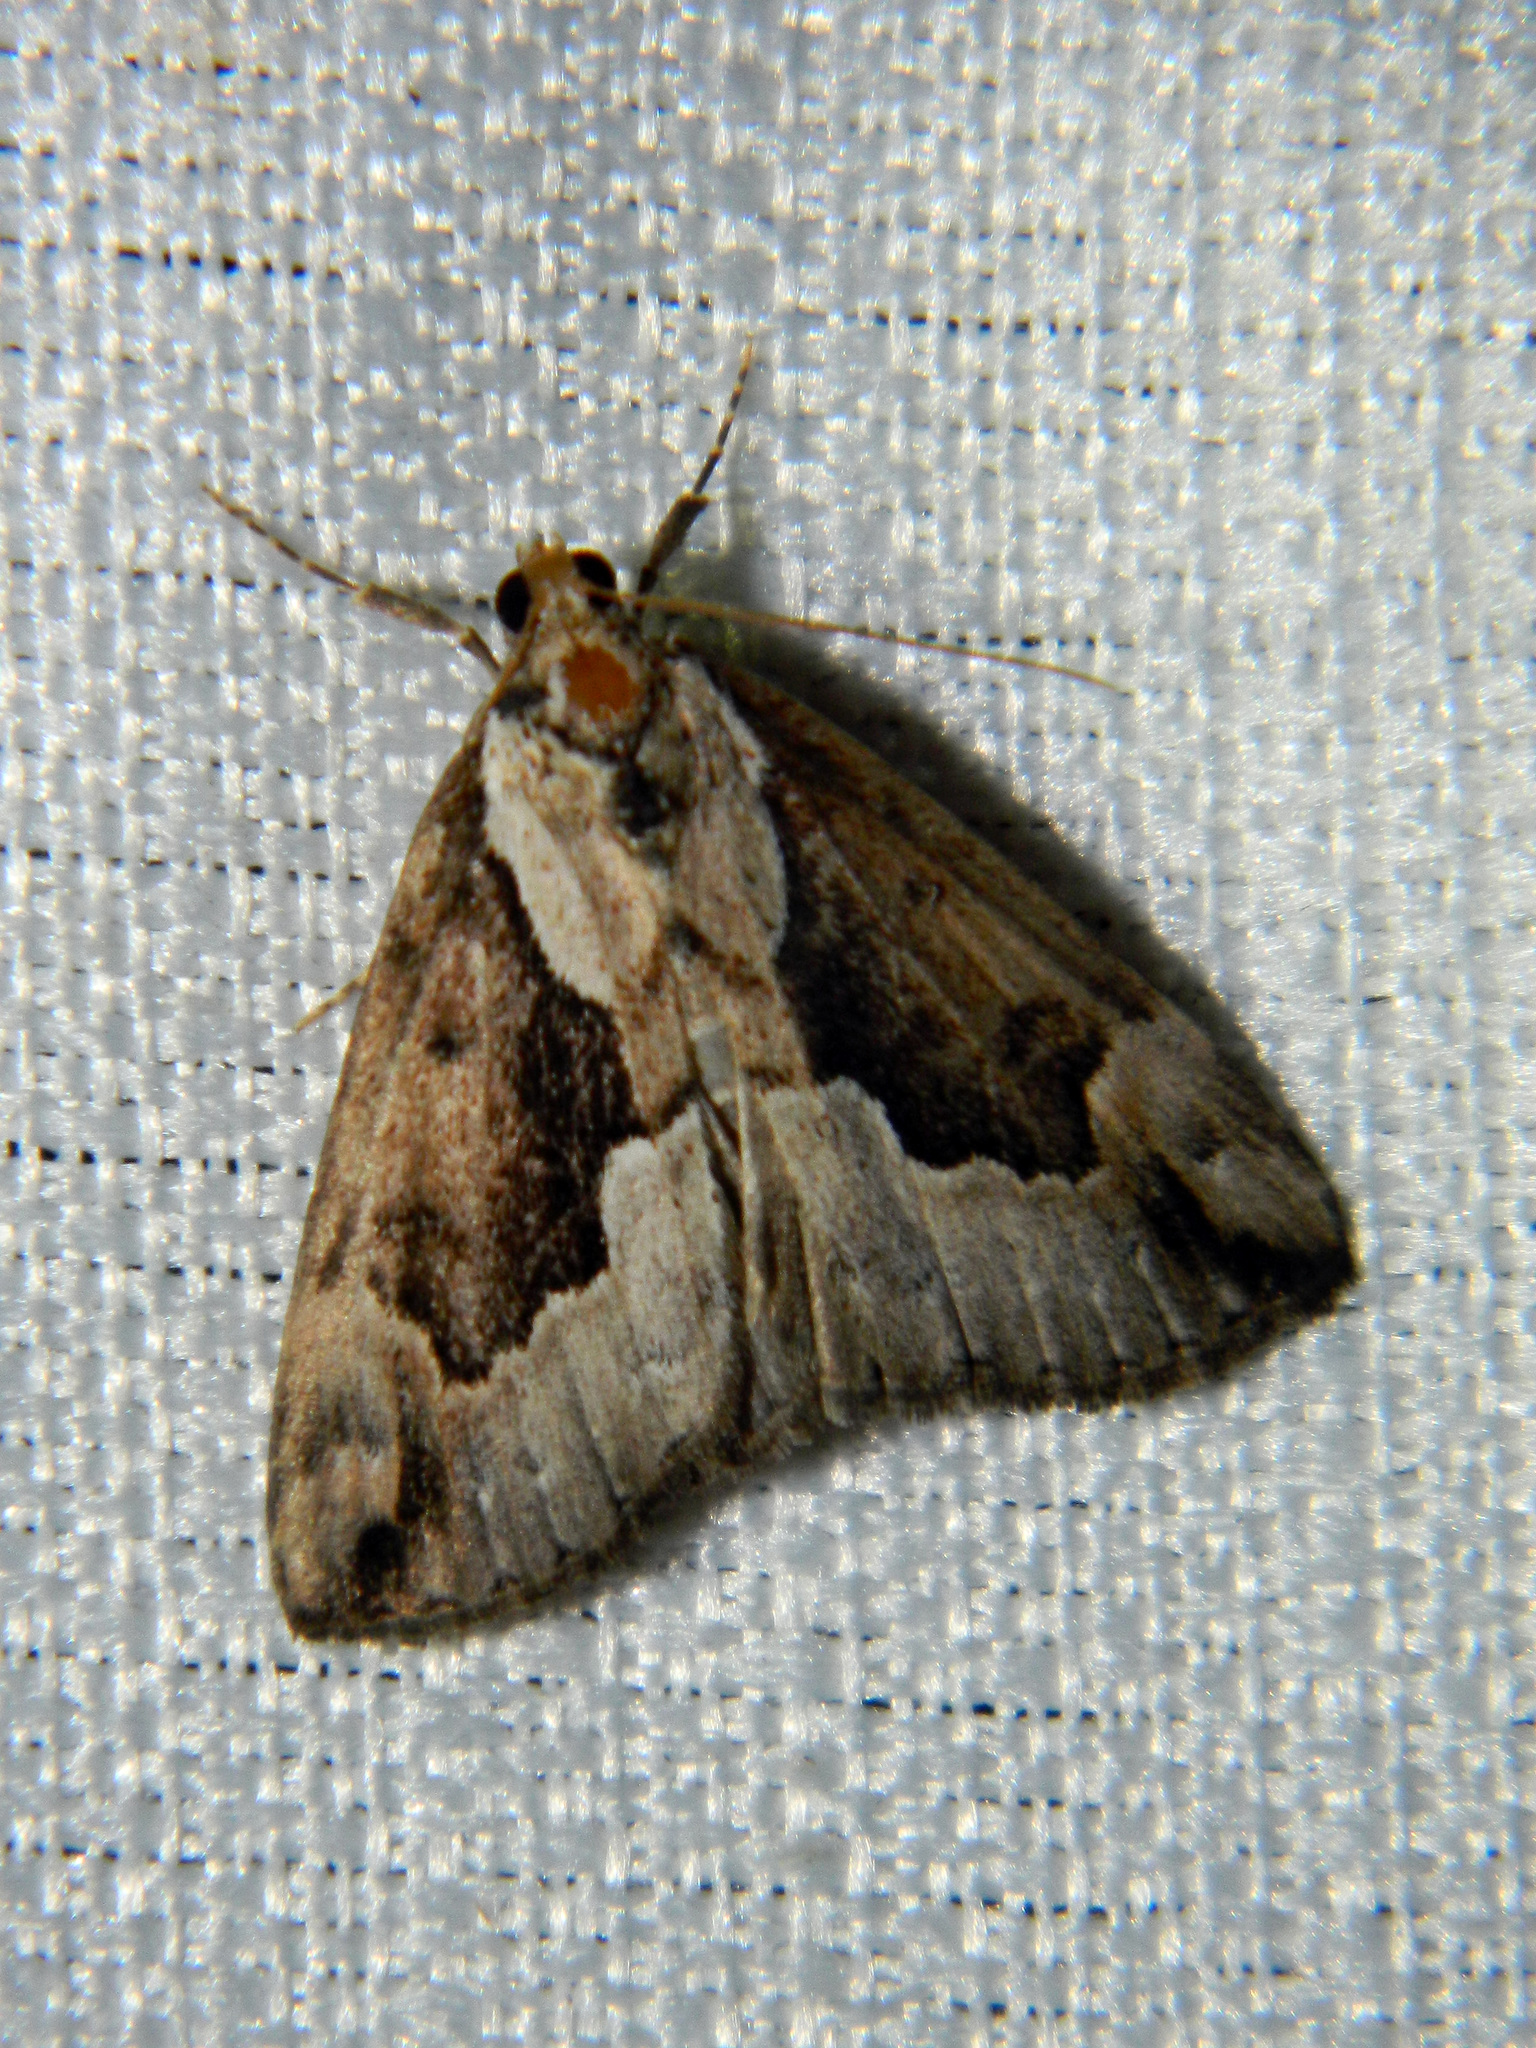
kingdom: Animalia
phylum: Arthropoda
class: Insecta
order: Lepidoptera
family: Erebidae
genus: Hypena
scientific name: Hypena baltimoralis
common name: Baltimore snout
